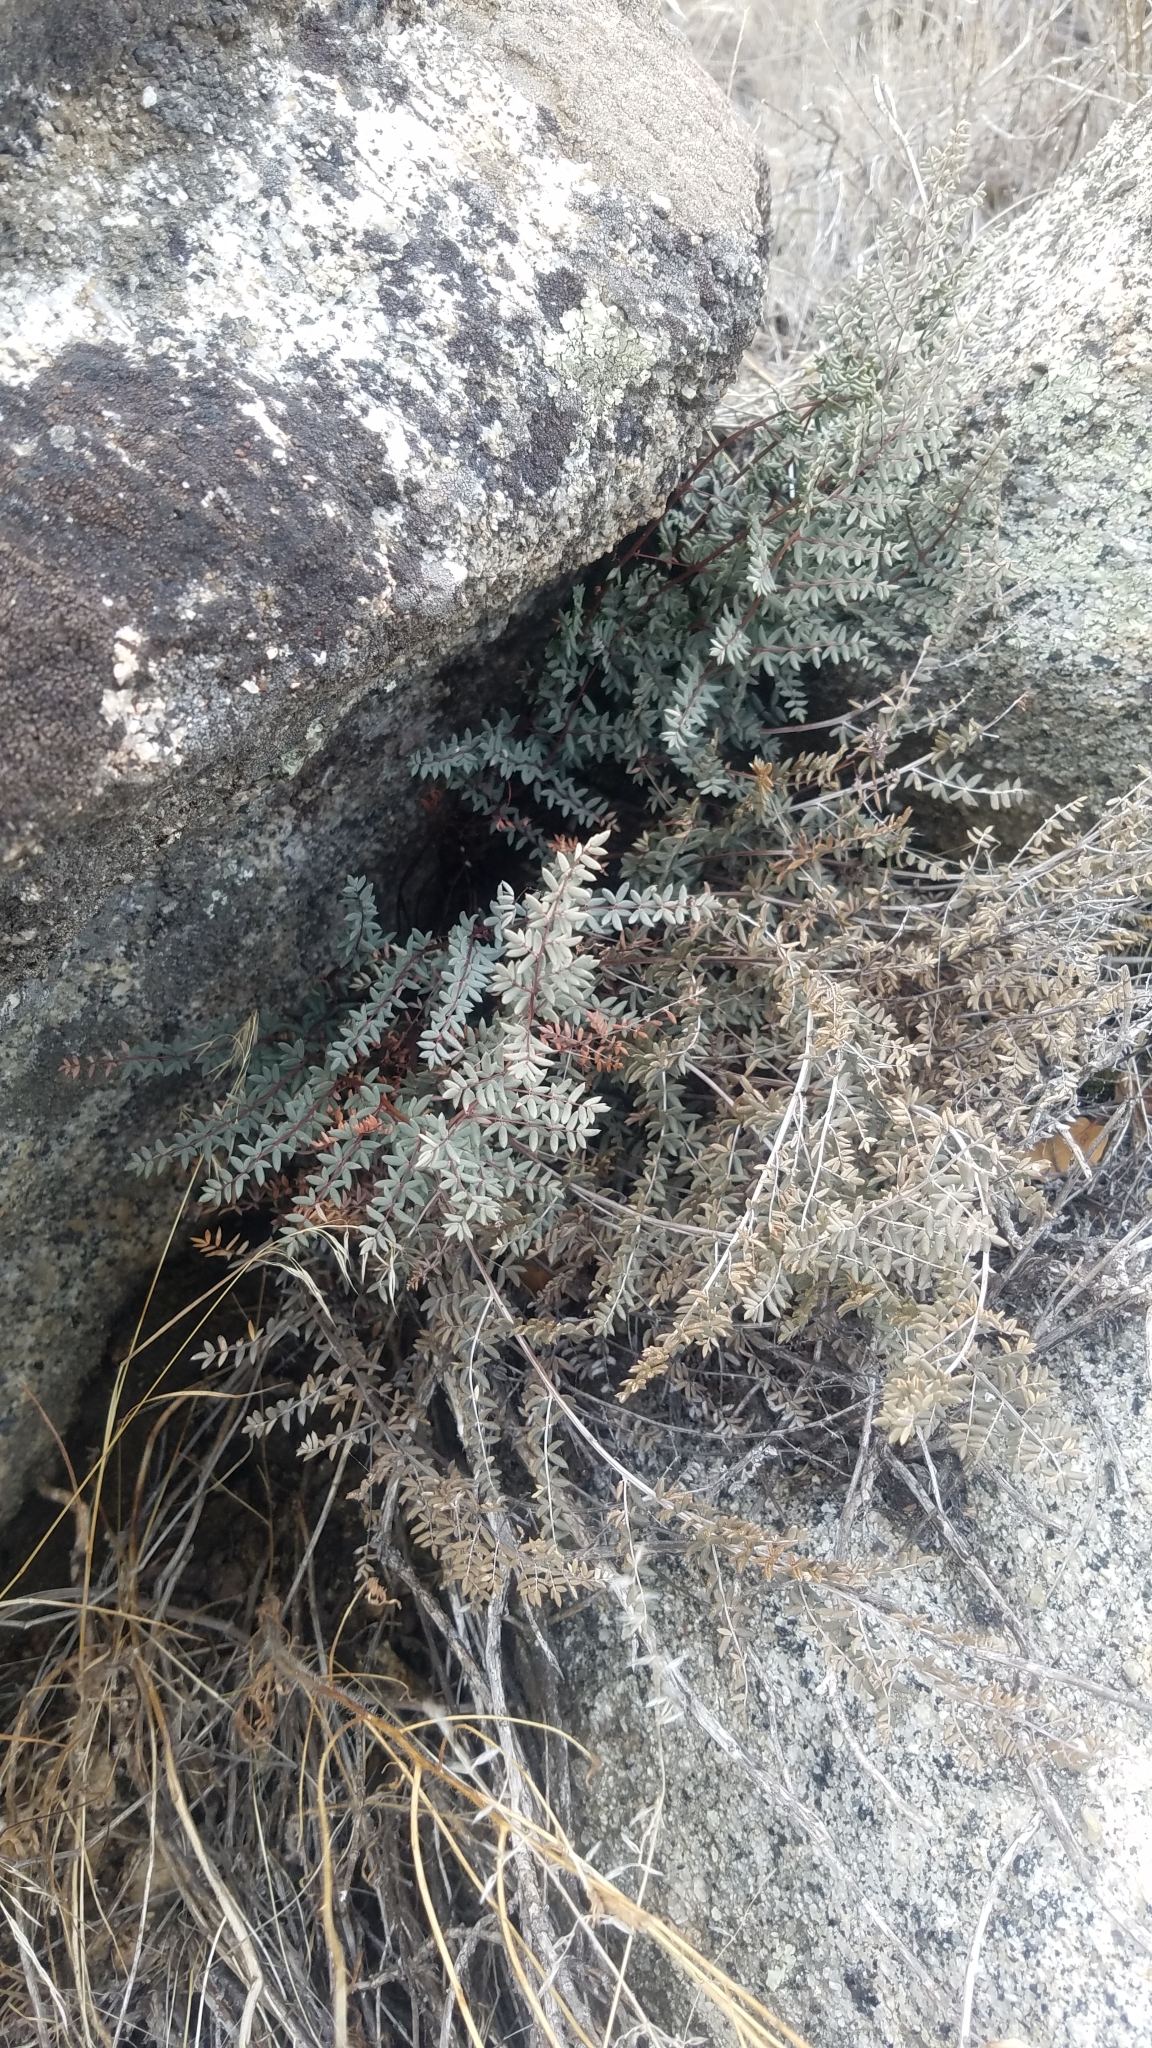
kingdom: Plantae
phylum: Tracheophyta
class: Polypodiopsida
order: Polypodiales
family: Pteridaceae
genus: Pellaea
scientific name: Pellaea mucronata
